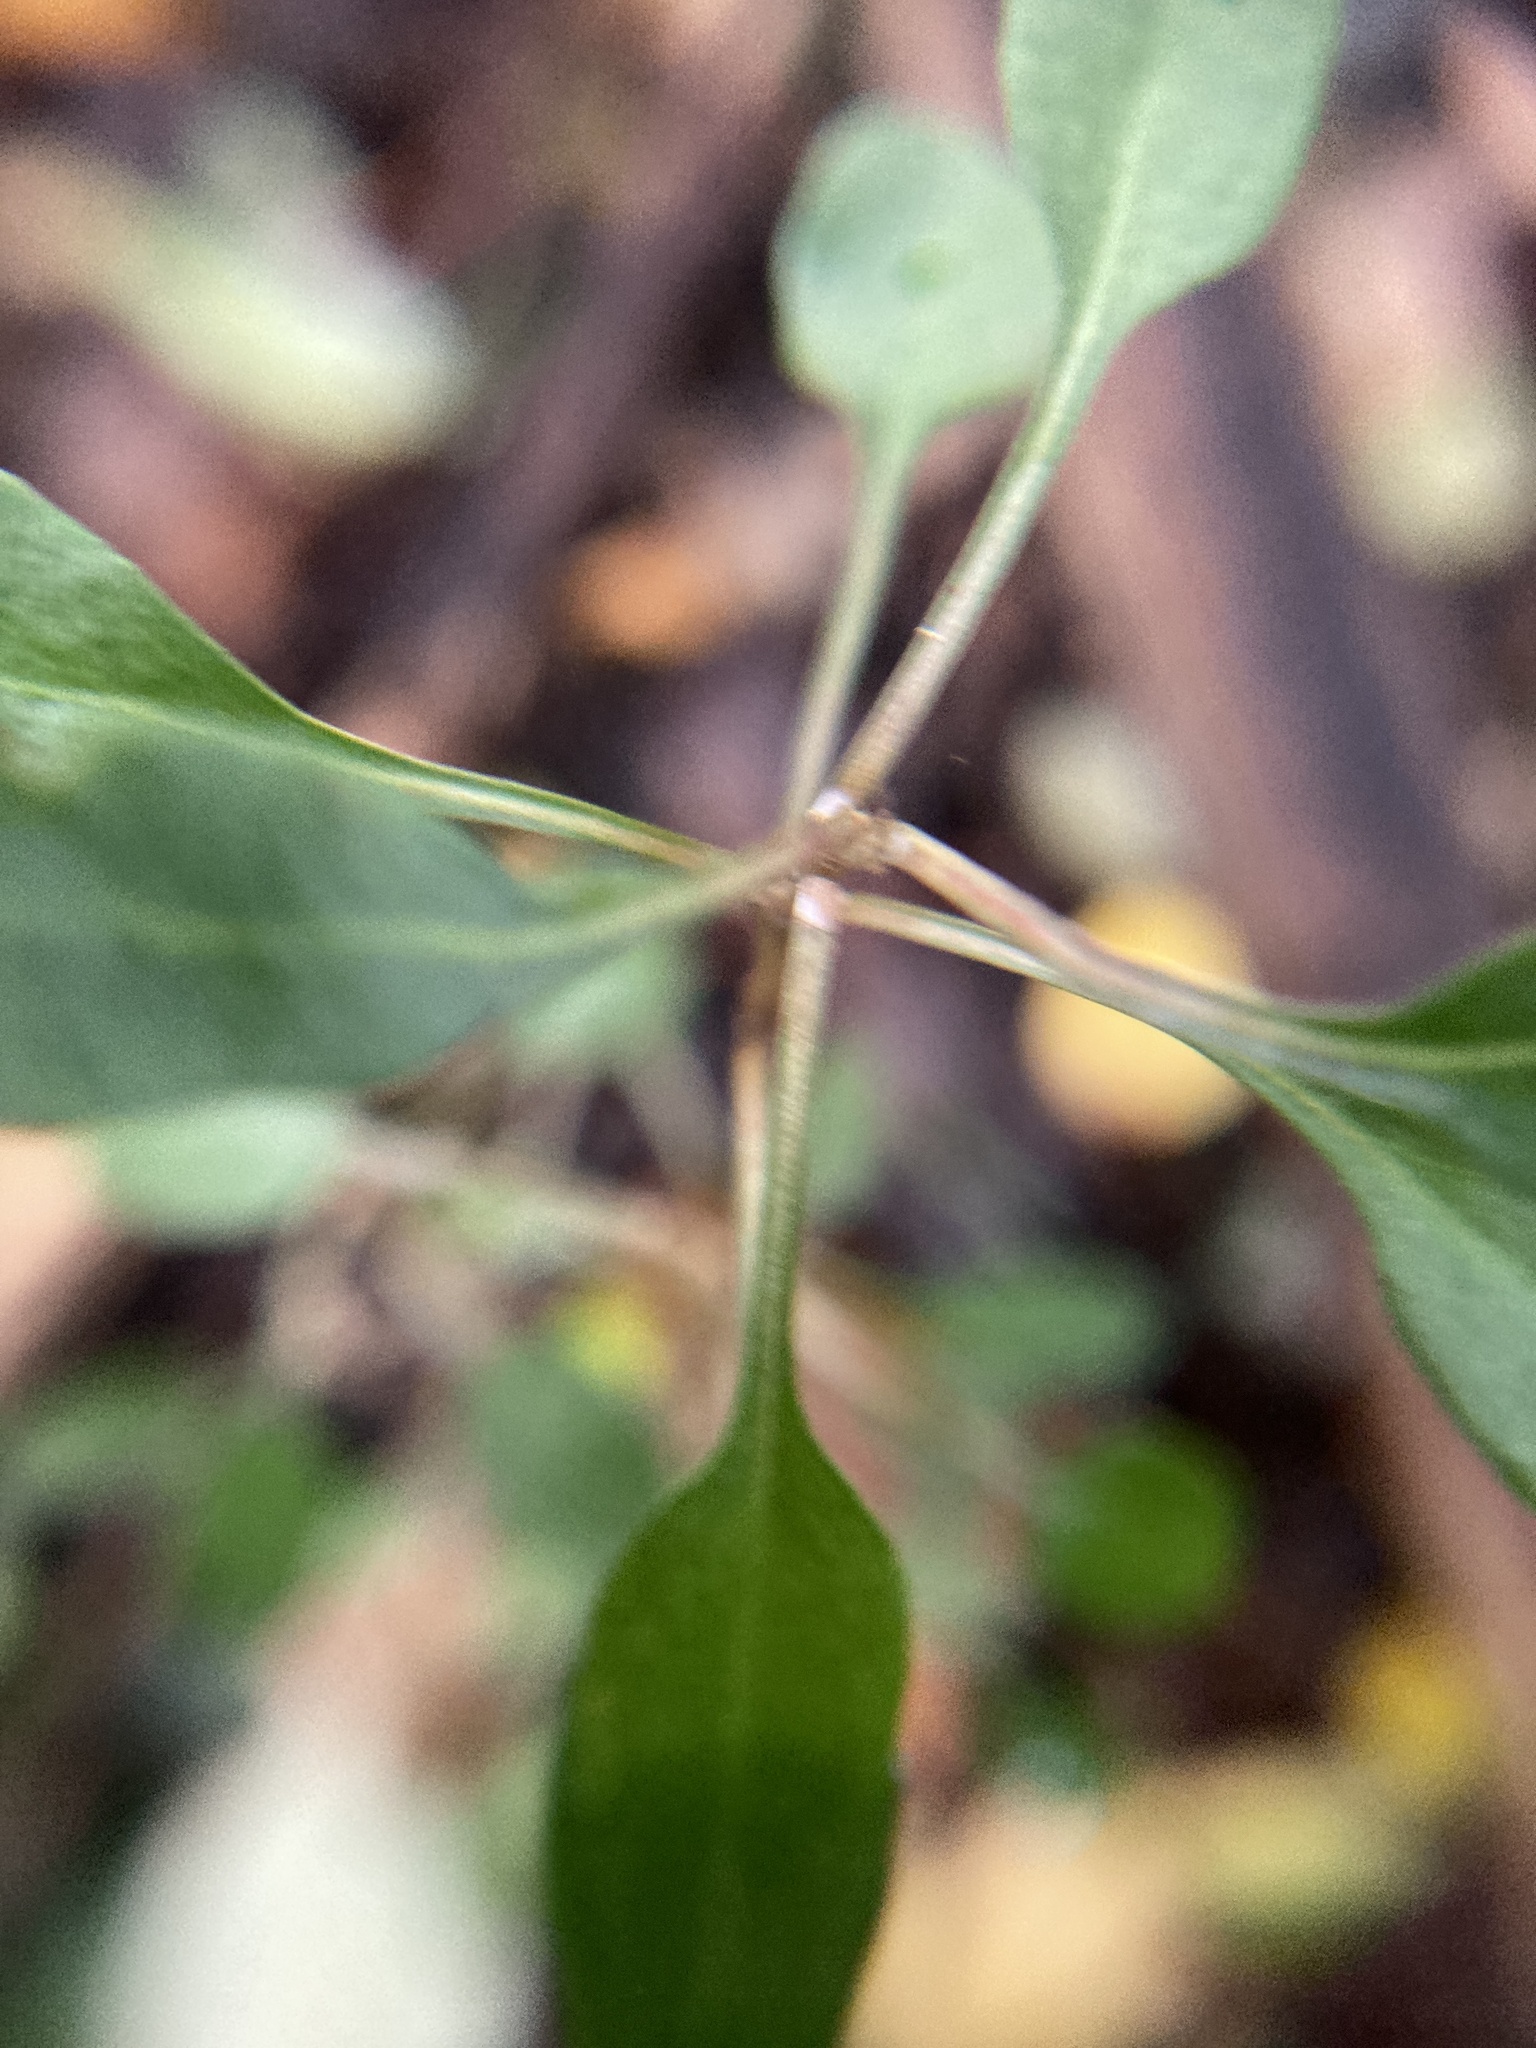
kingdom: Plantae
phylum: Tracheophyta
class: Magnoliopsida
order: Gentianales
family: Rubiaceae
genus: Coprosma
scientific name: Coprosma cunninghamii
